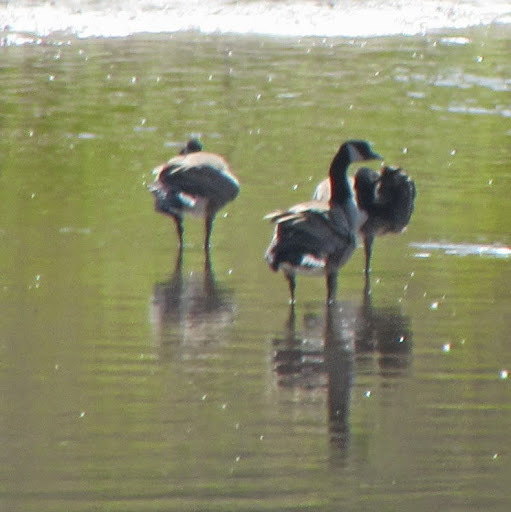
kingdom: Animalia
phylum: Chordata
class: Aves
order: Anseriformes
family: Anatidae
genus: Branta
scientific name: Branta canadensis
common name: Canada goose
